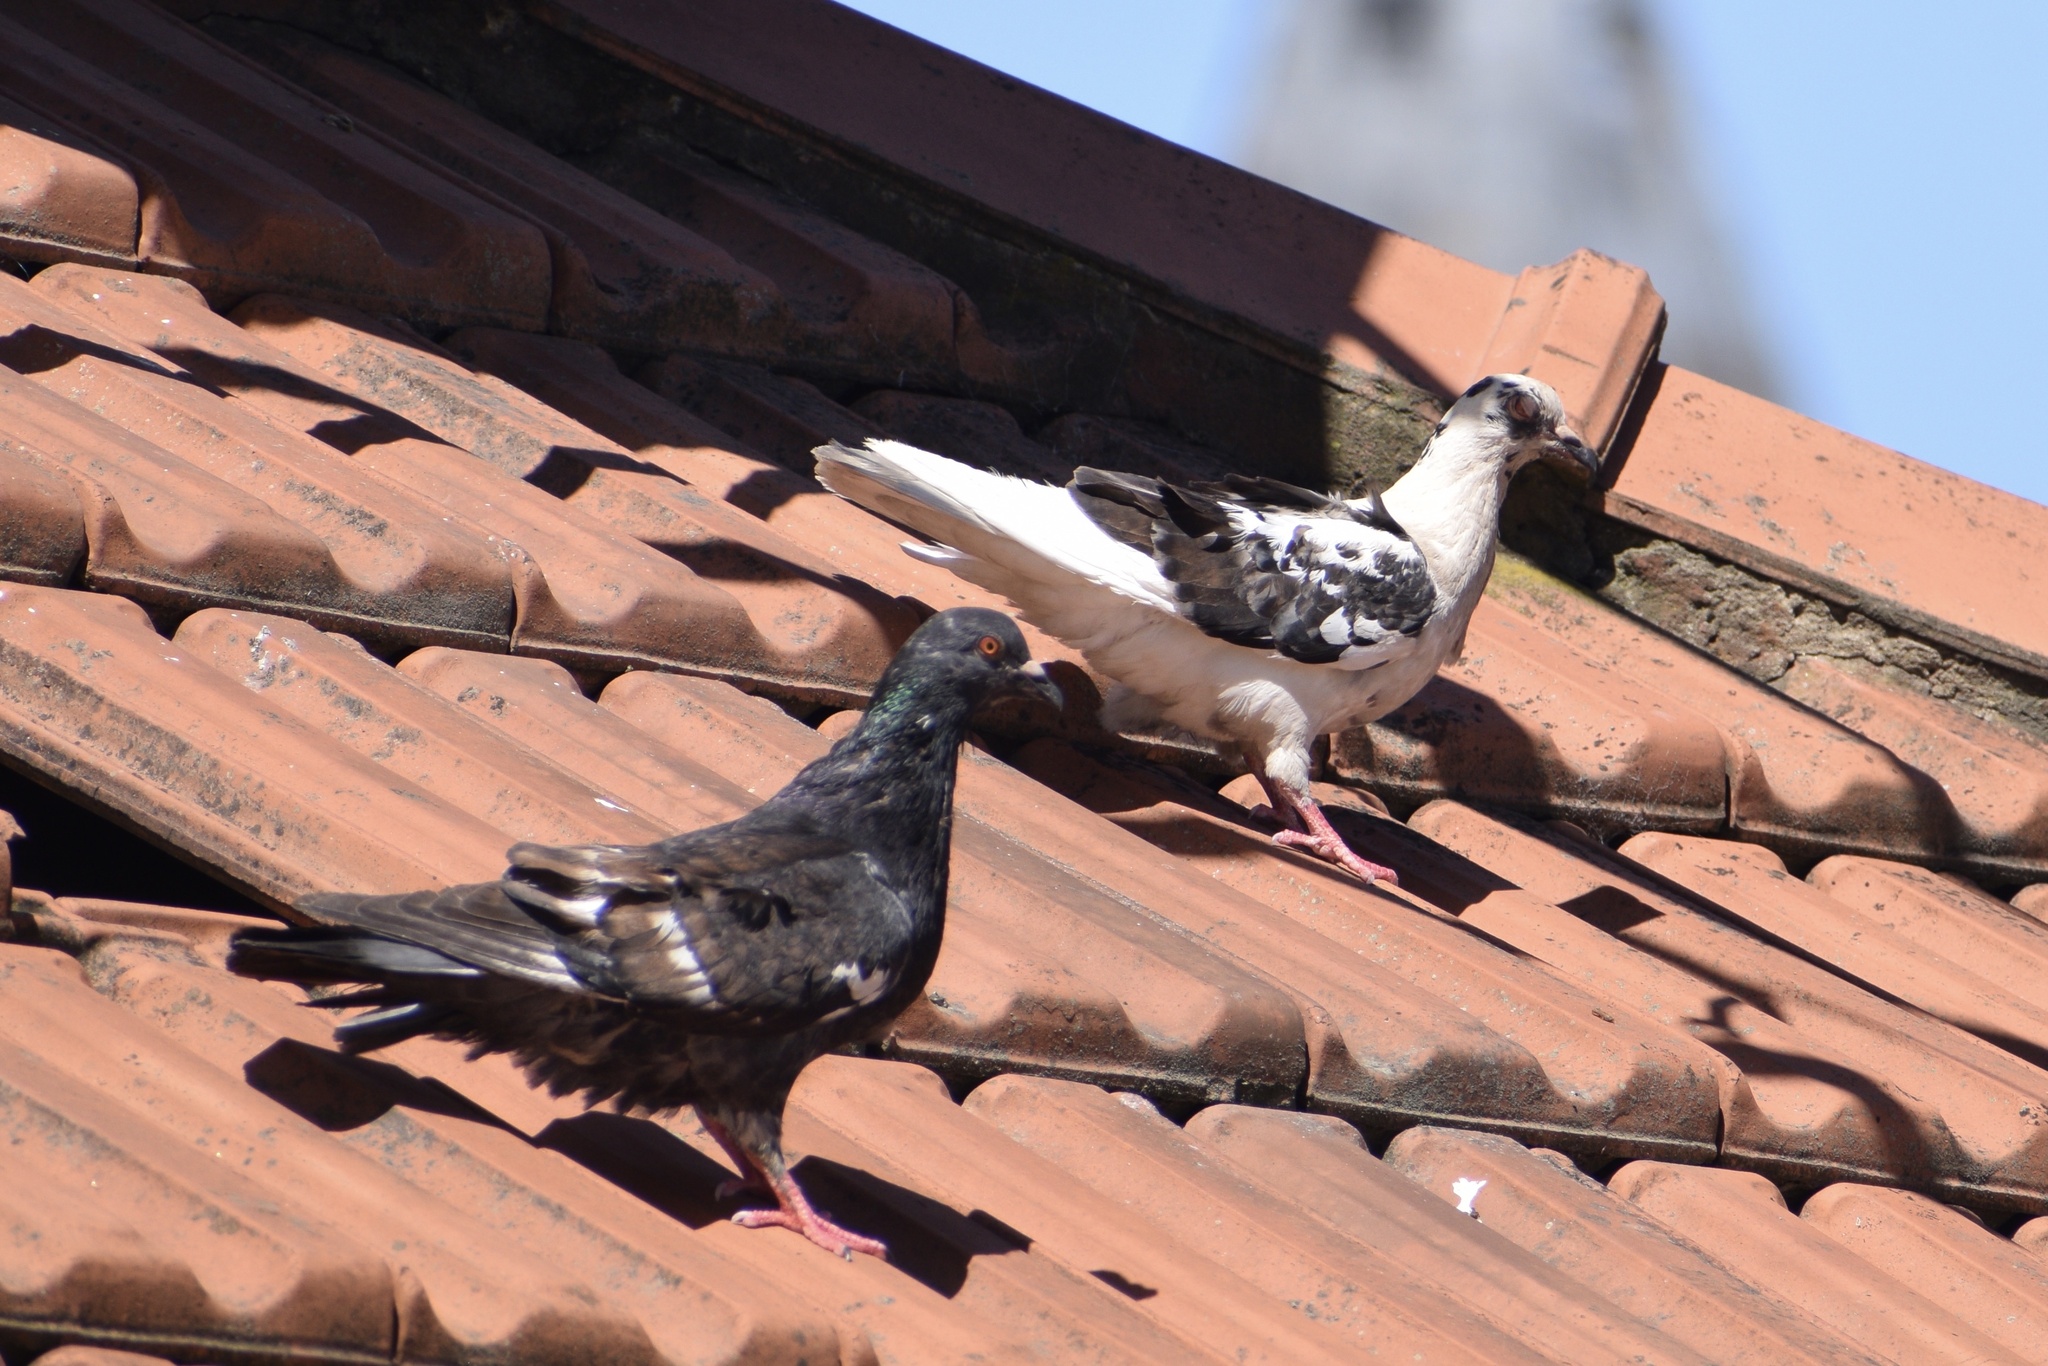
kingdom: Animalia
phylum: Chordata
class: Aves
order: Columbiformes
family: Columbidae
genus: Columba
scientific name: Columba livia
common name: Rock pigeon
